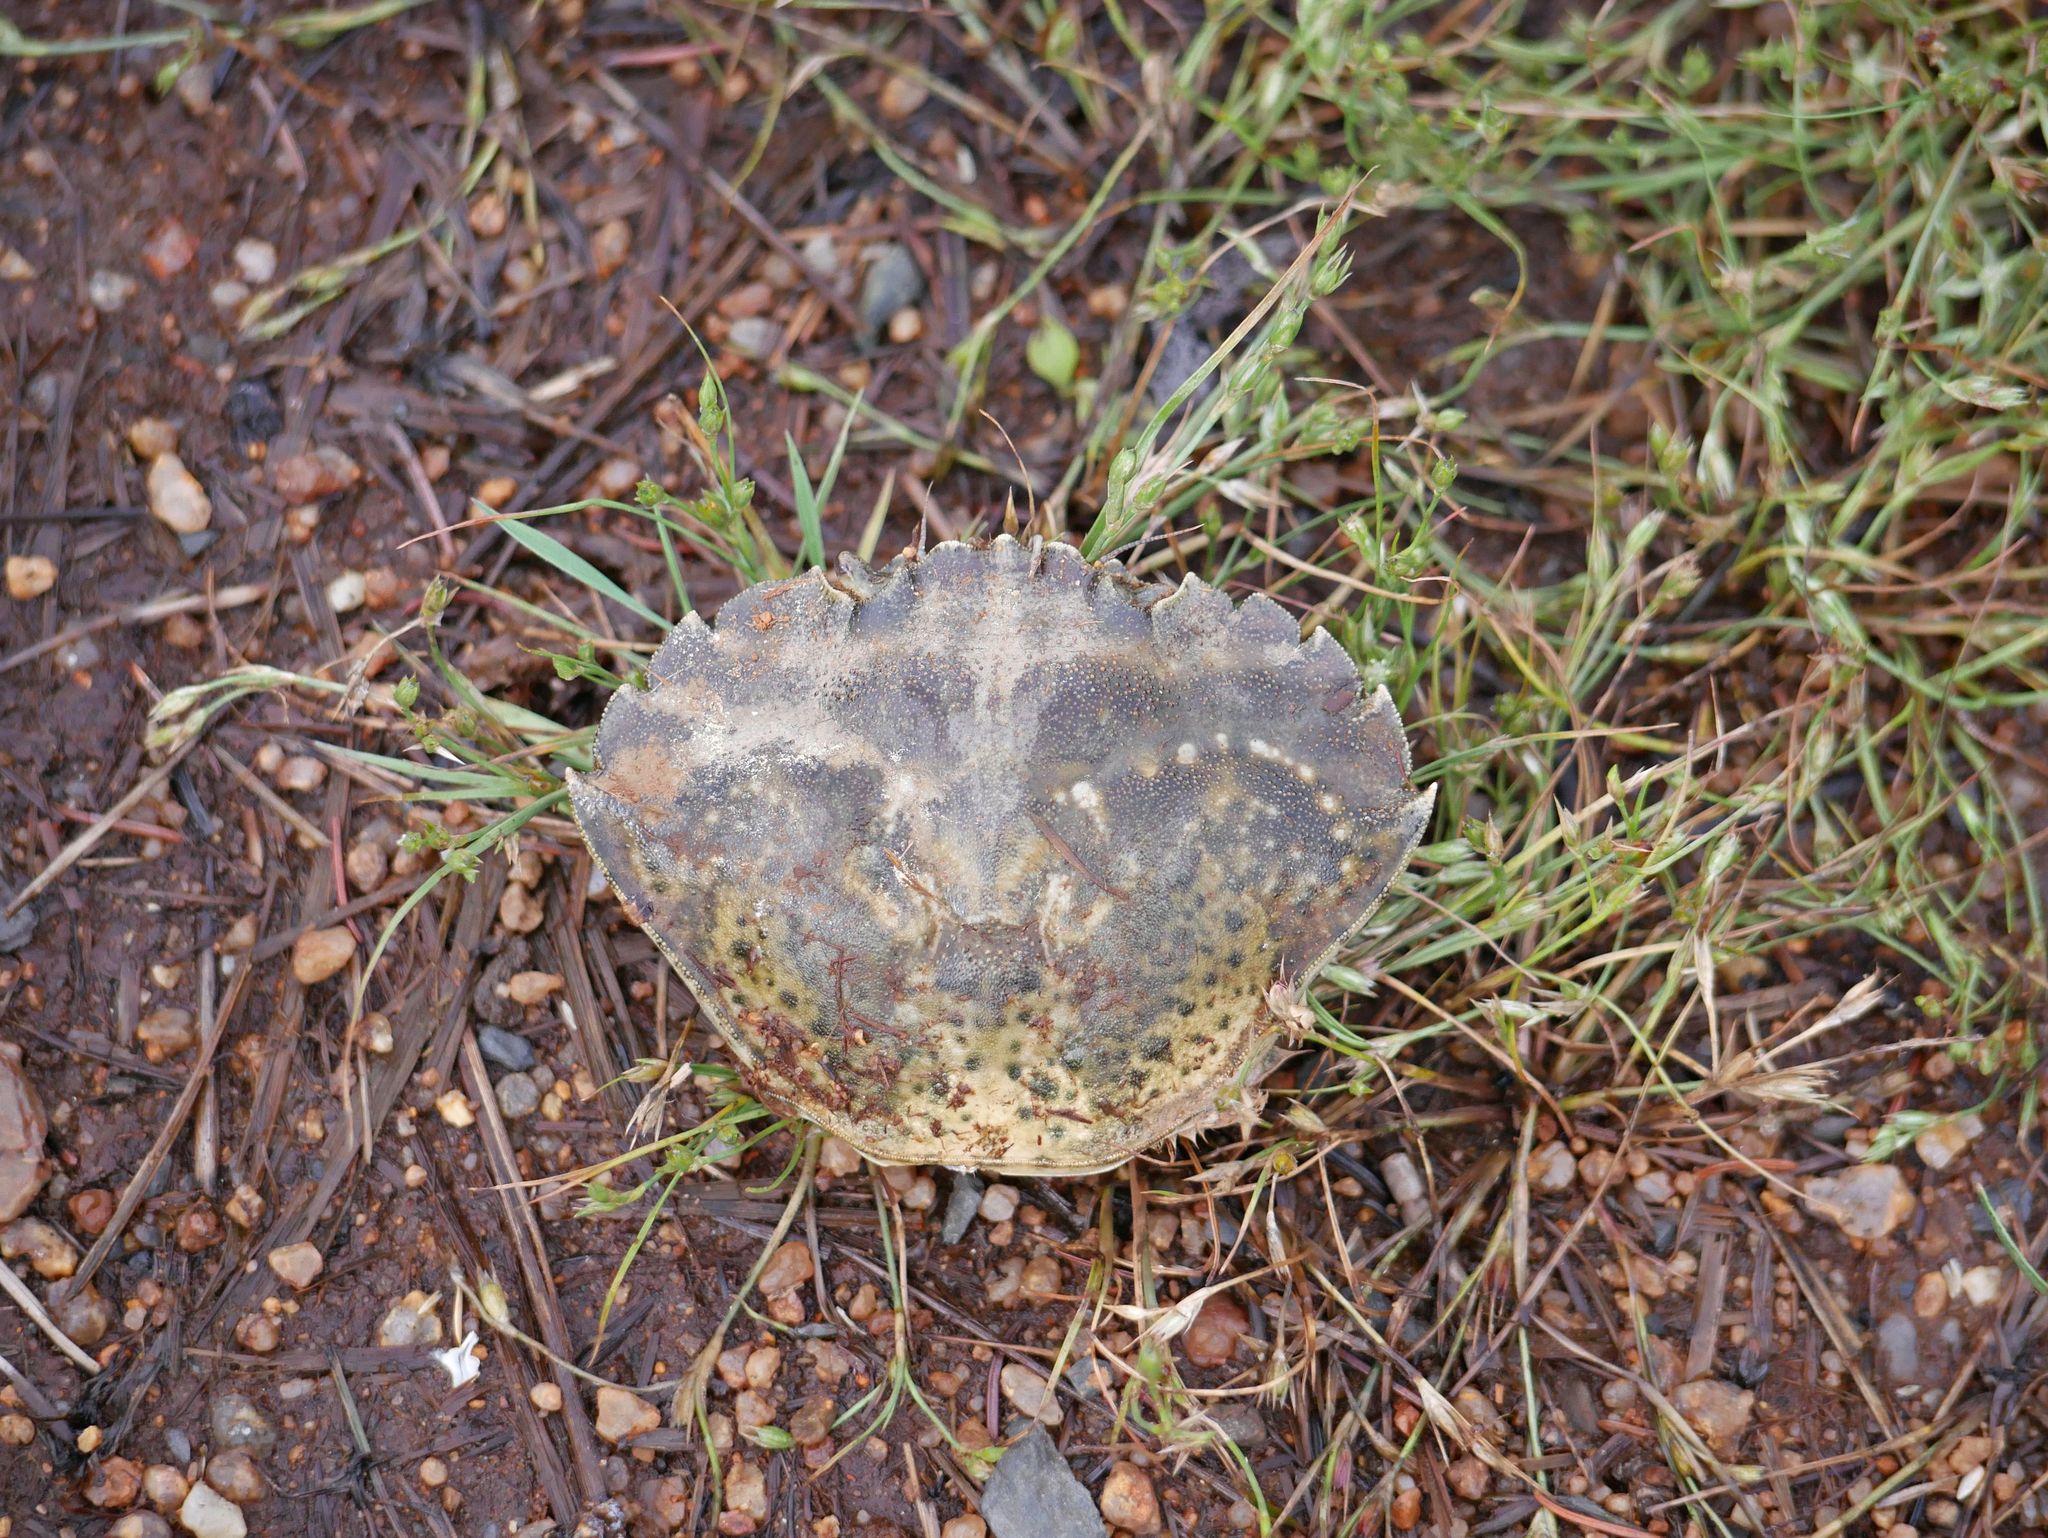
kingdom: Animalia
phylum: Arthropoda
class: Malacostraca
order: Decapoda
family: Carcinidae
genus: Carcinus
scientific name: Carcinus maenas
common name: European green crab
